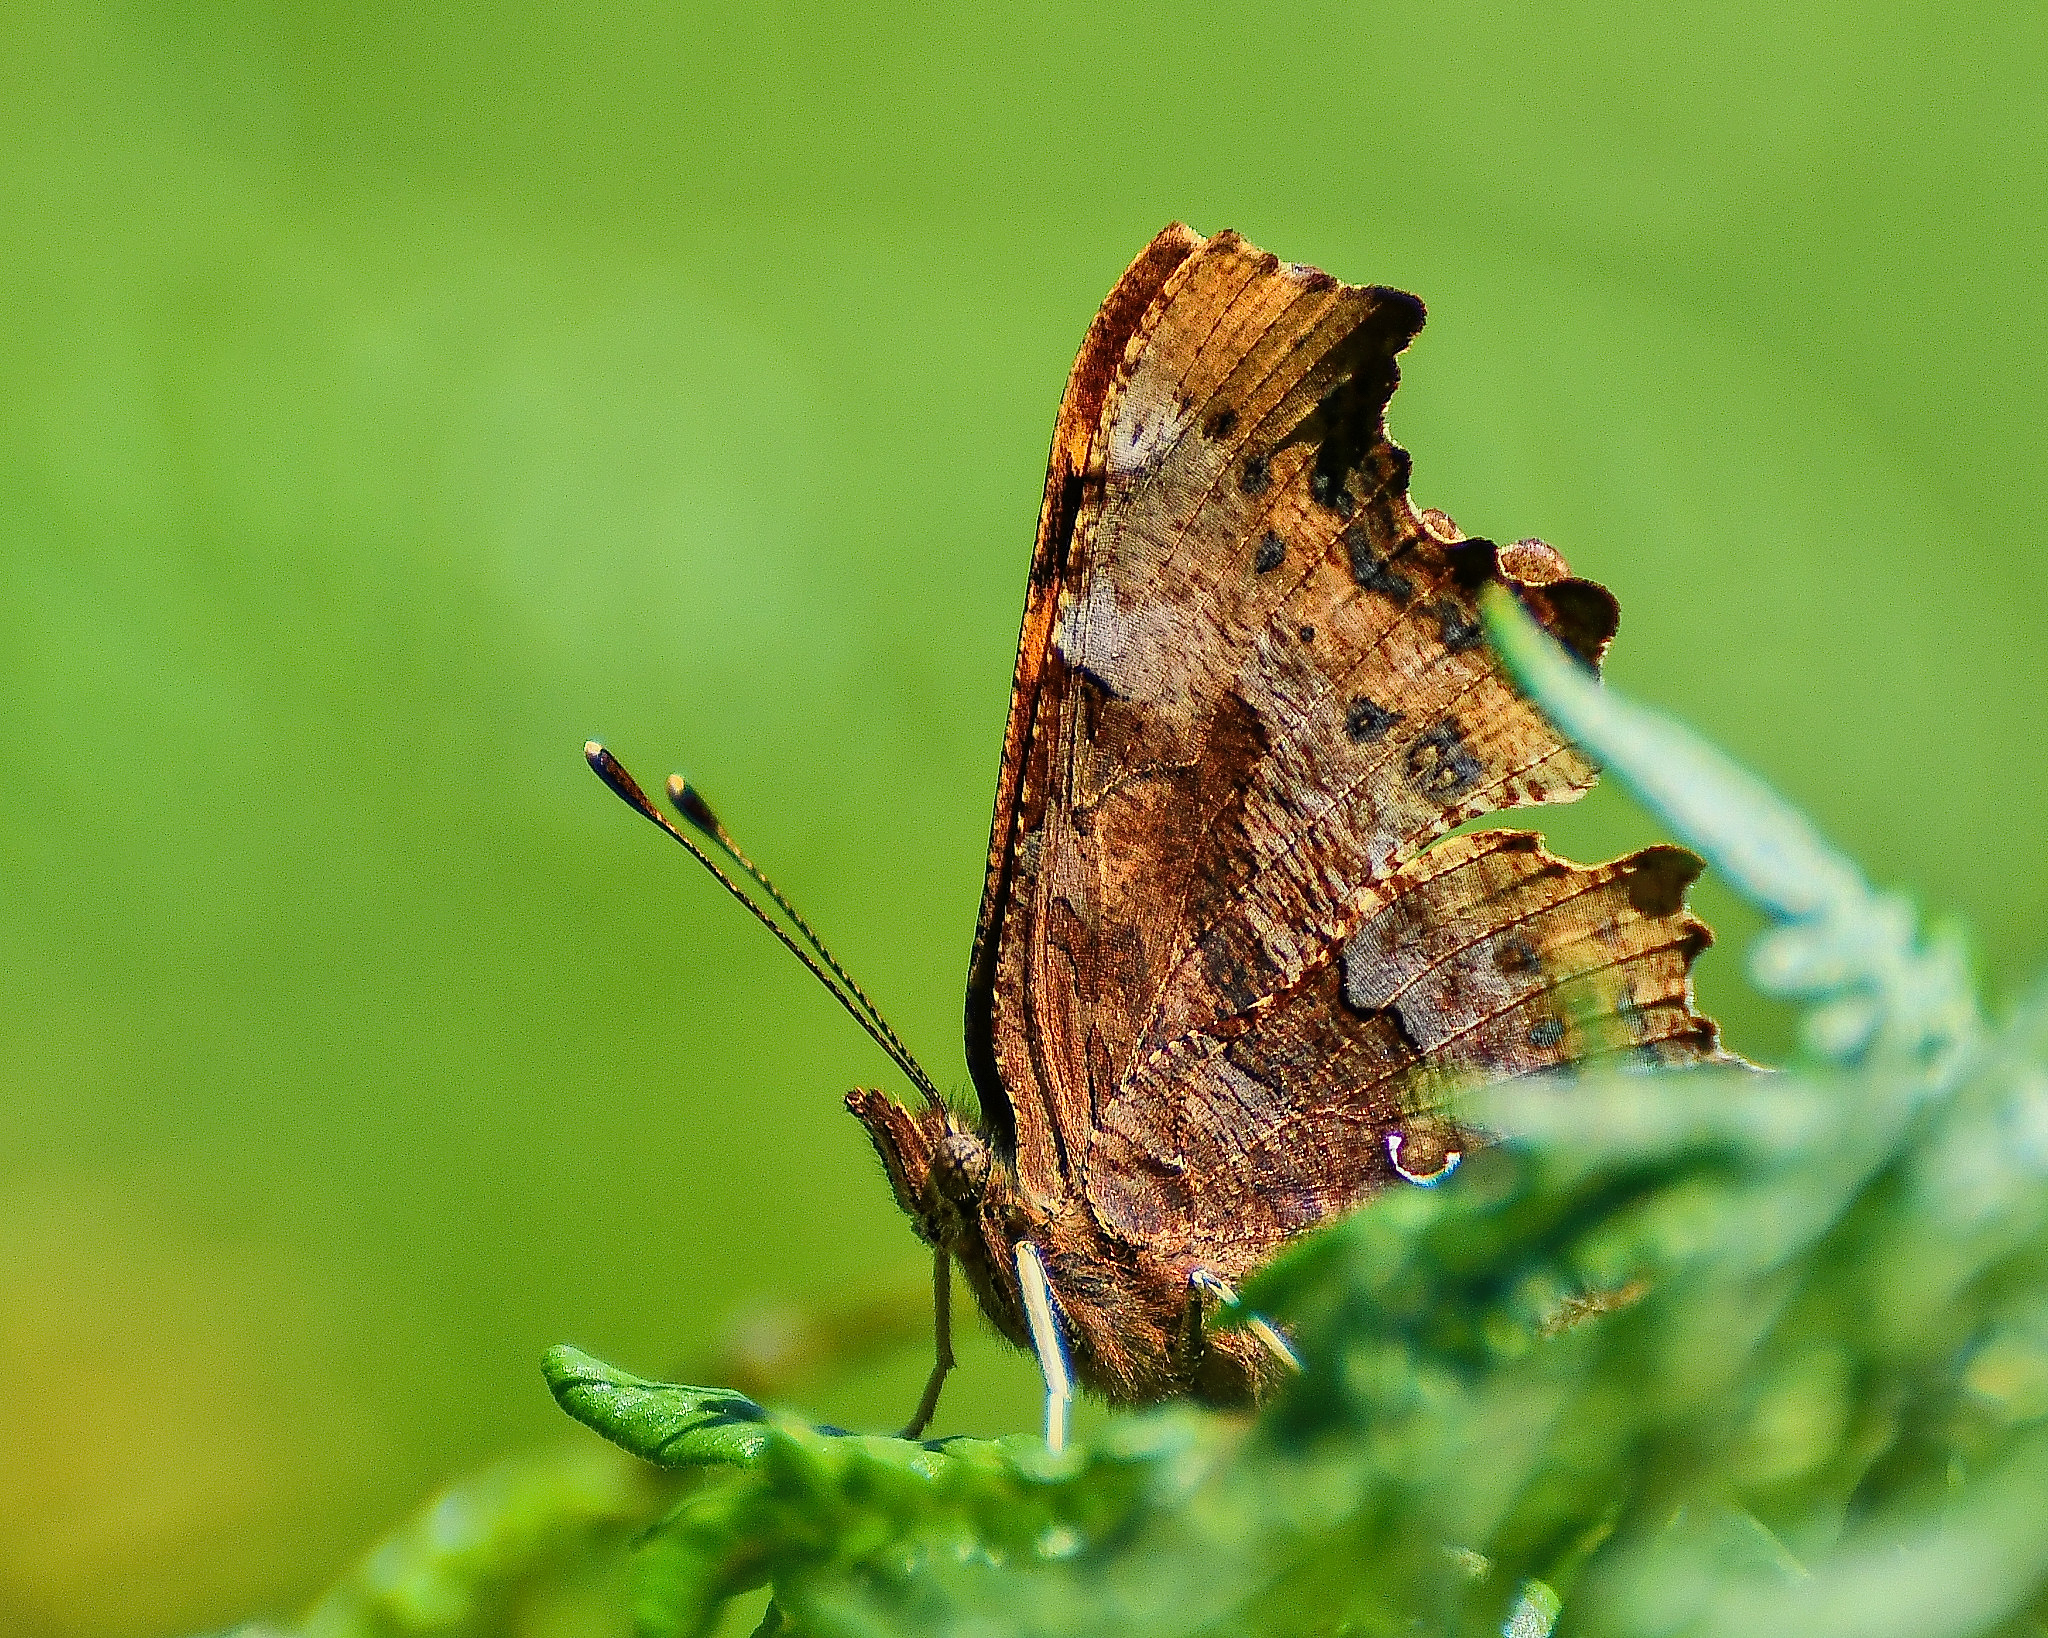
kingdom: Animalia
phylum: Arthropoda
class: Insecta
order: Lepidoptera
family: Nymphalidae
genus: Polygonia
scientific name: Polygonia c-album
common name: Comma
